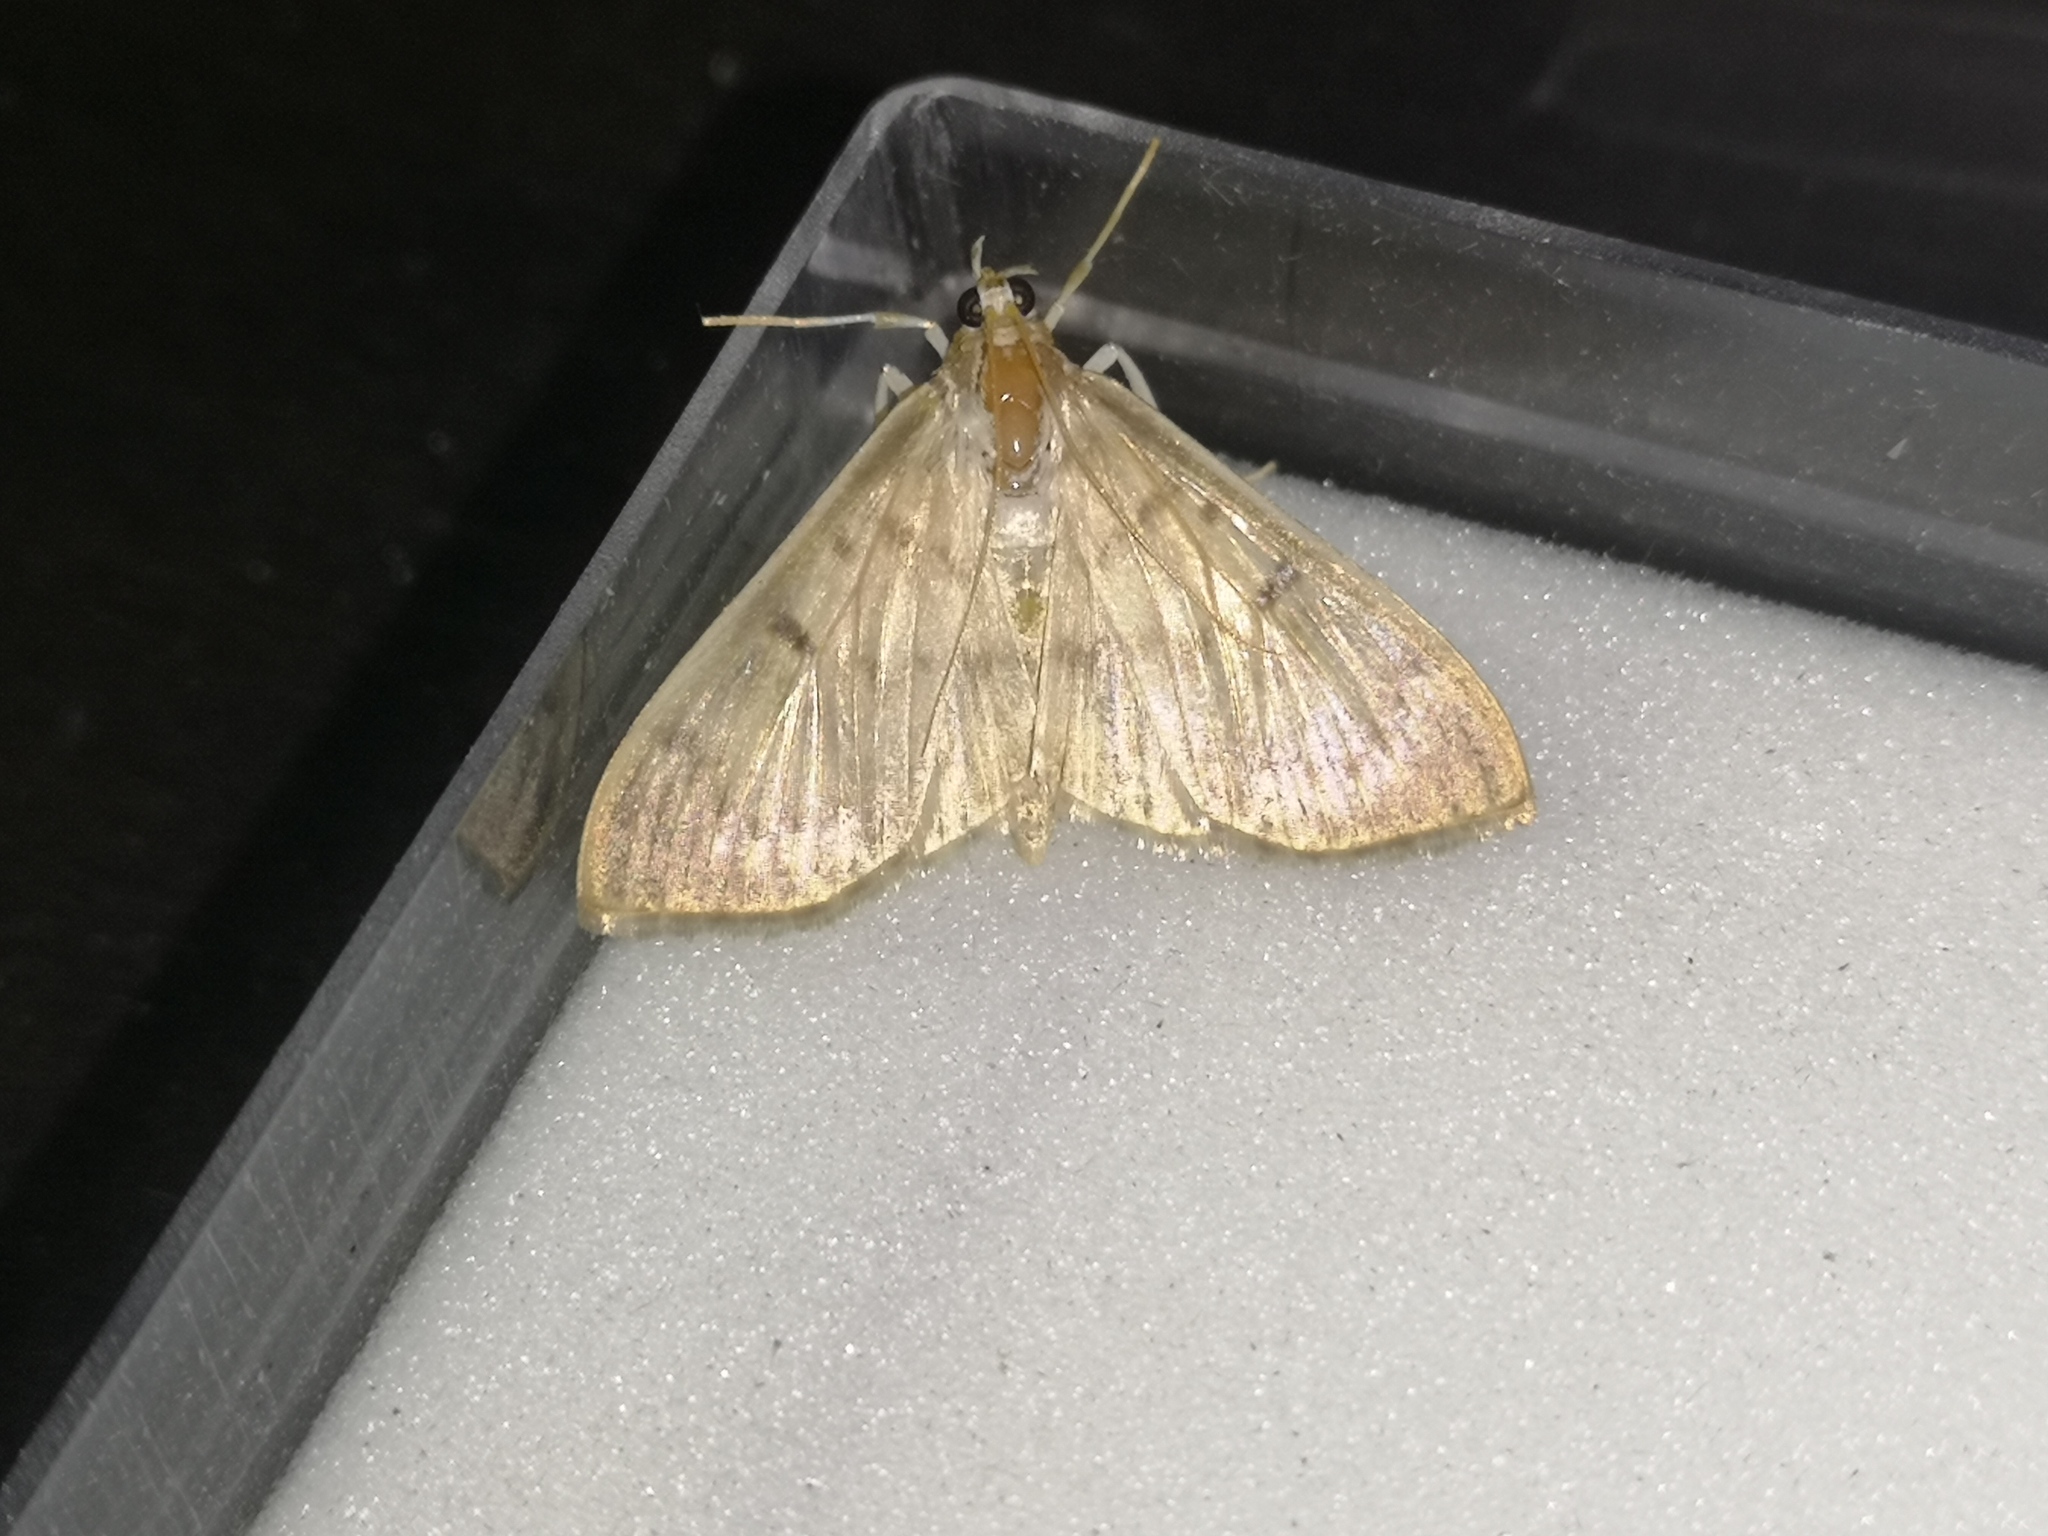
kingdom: Animalia
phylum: Arthropoda
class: Insecta
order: Lepidoptera
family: Crambidae
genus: Patania
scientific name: Patania ruralis
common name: Mother of pearl
